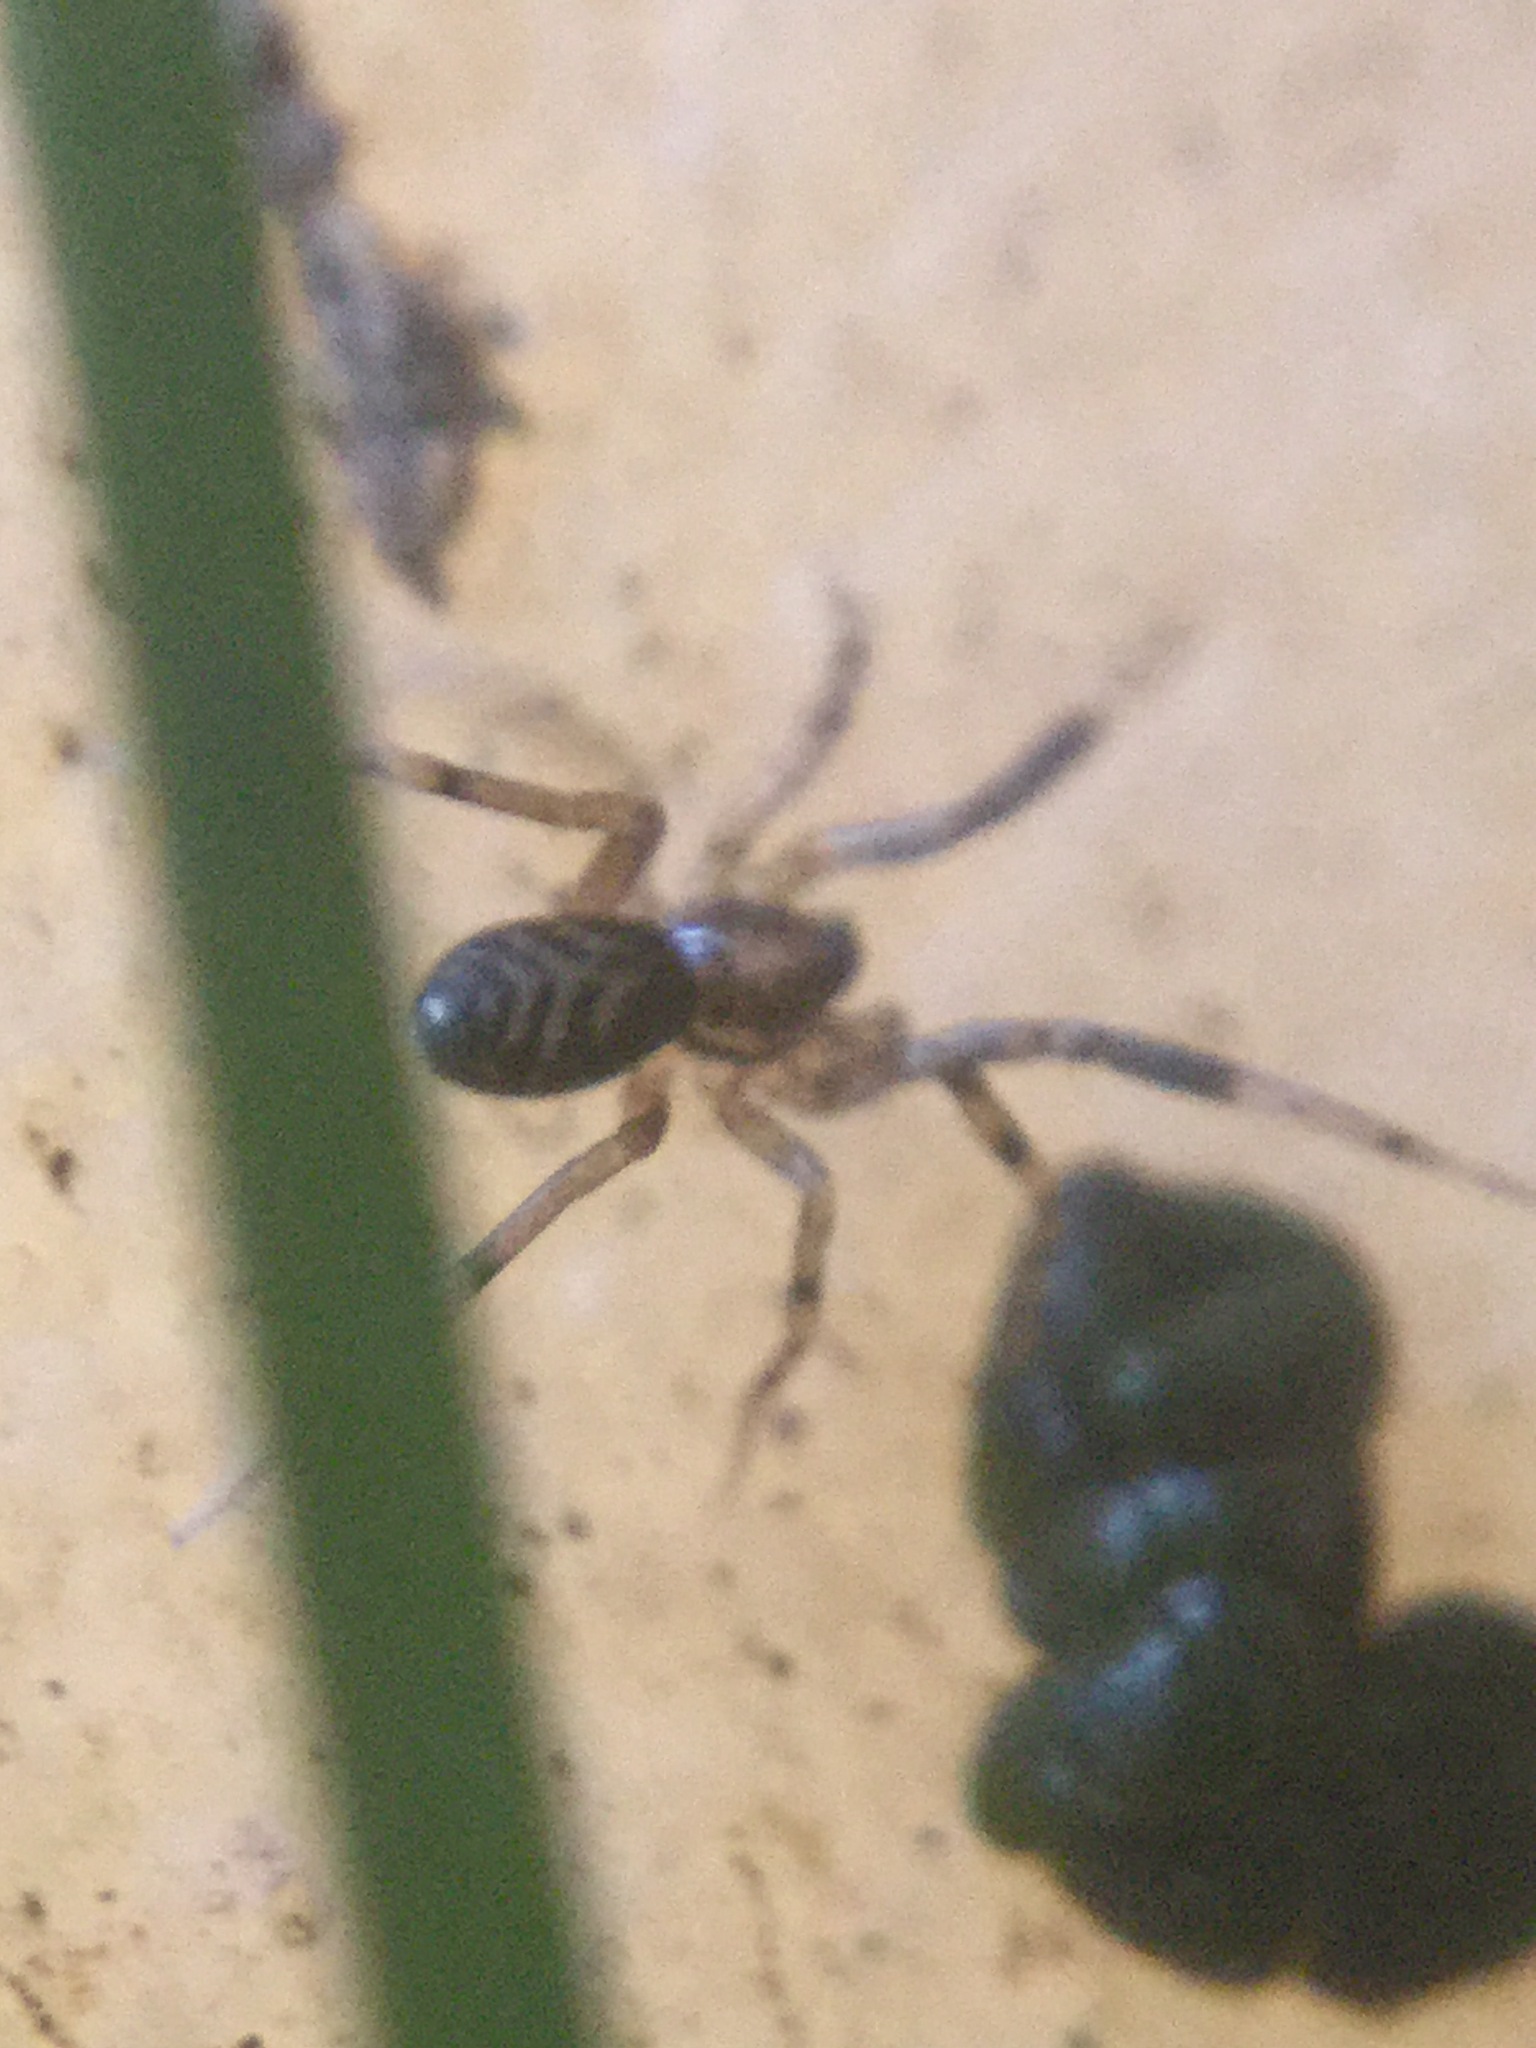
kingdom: Animalia
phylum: Arthropoda
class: Arachnida
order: Araneae
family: Phrurolithidae
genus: Phrurotimpus
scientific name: Phrurotimpus borealis
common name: Greater ant-mimic corinne spider
